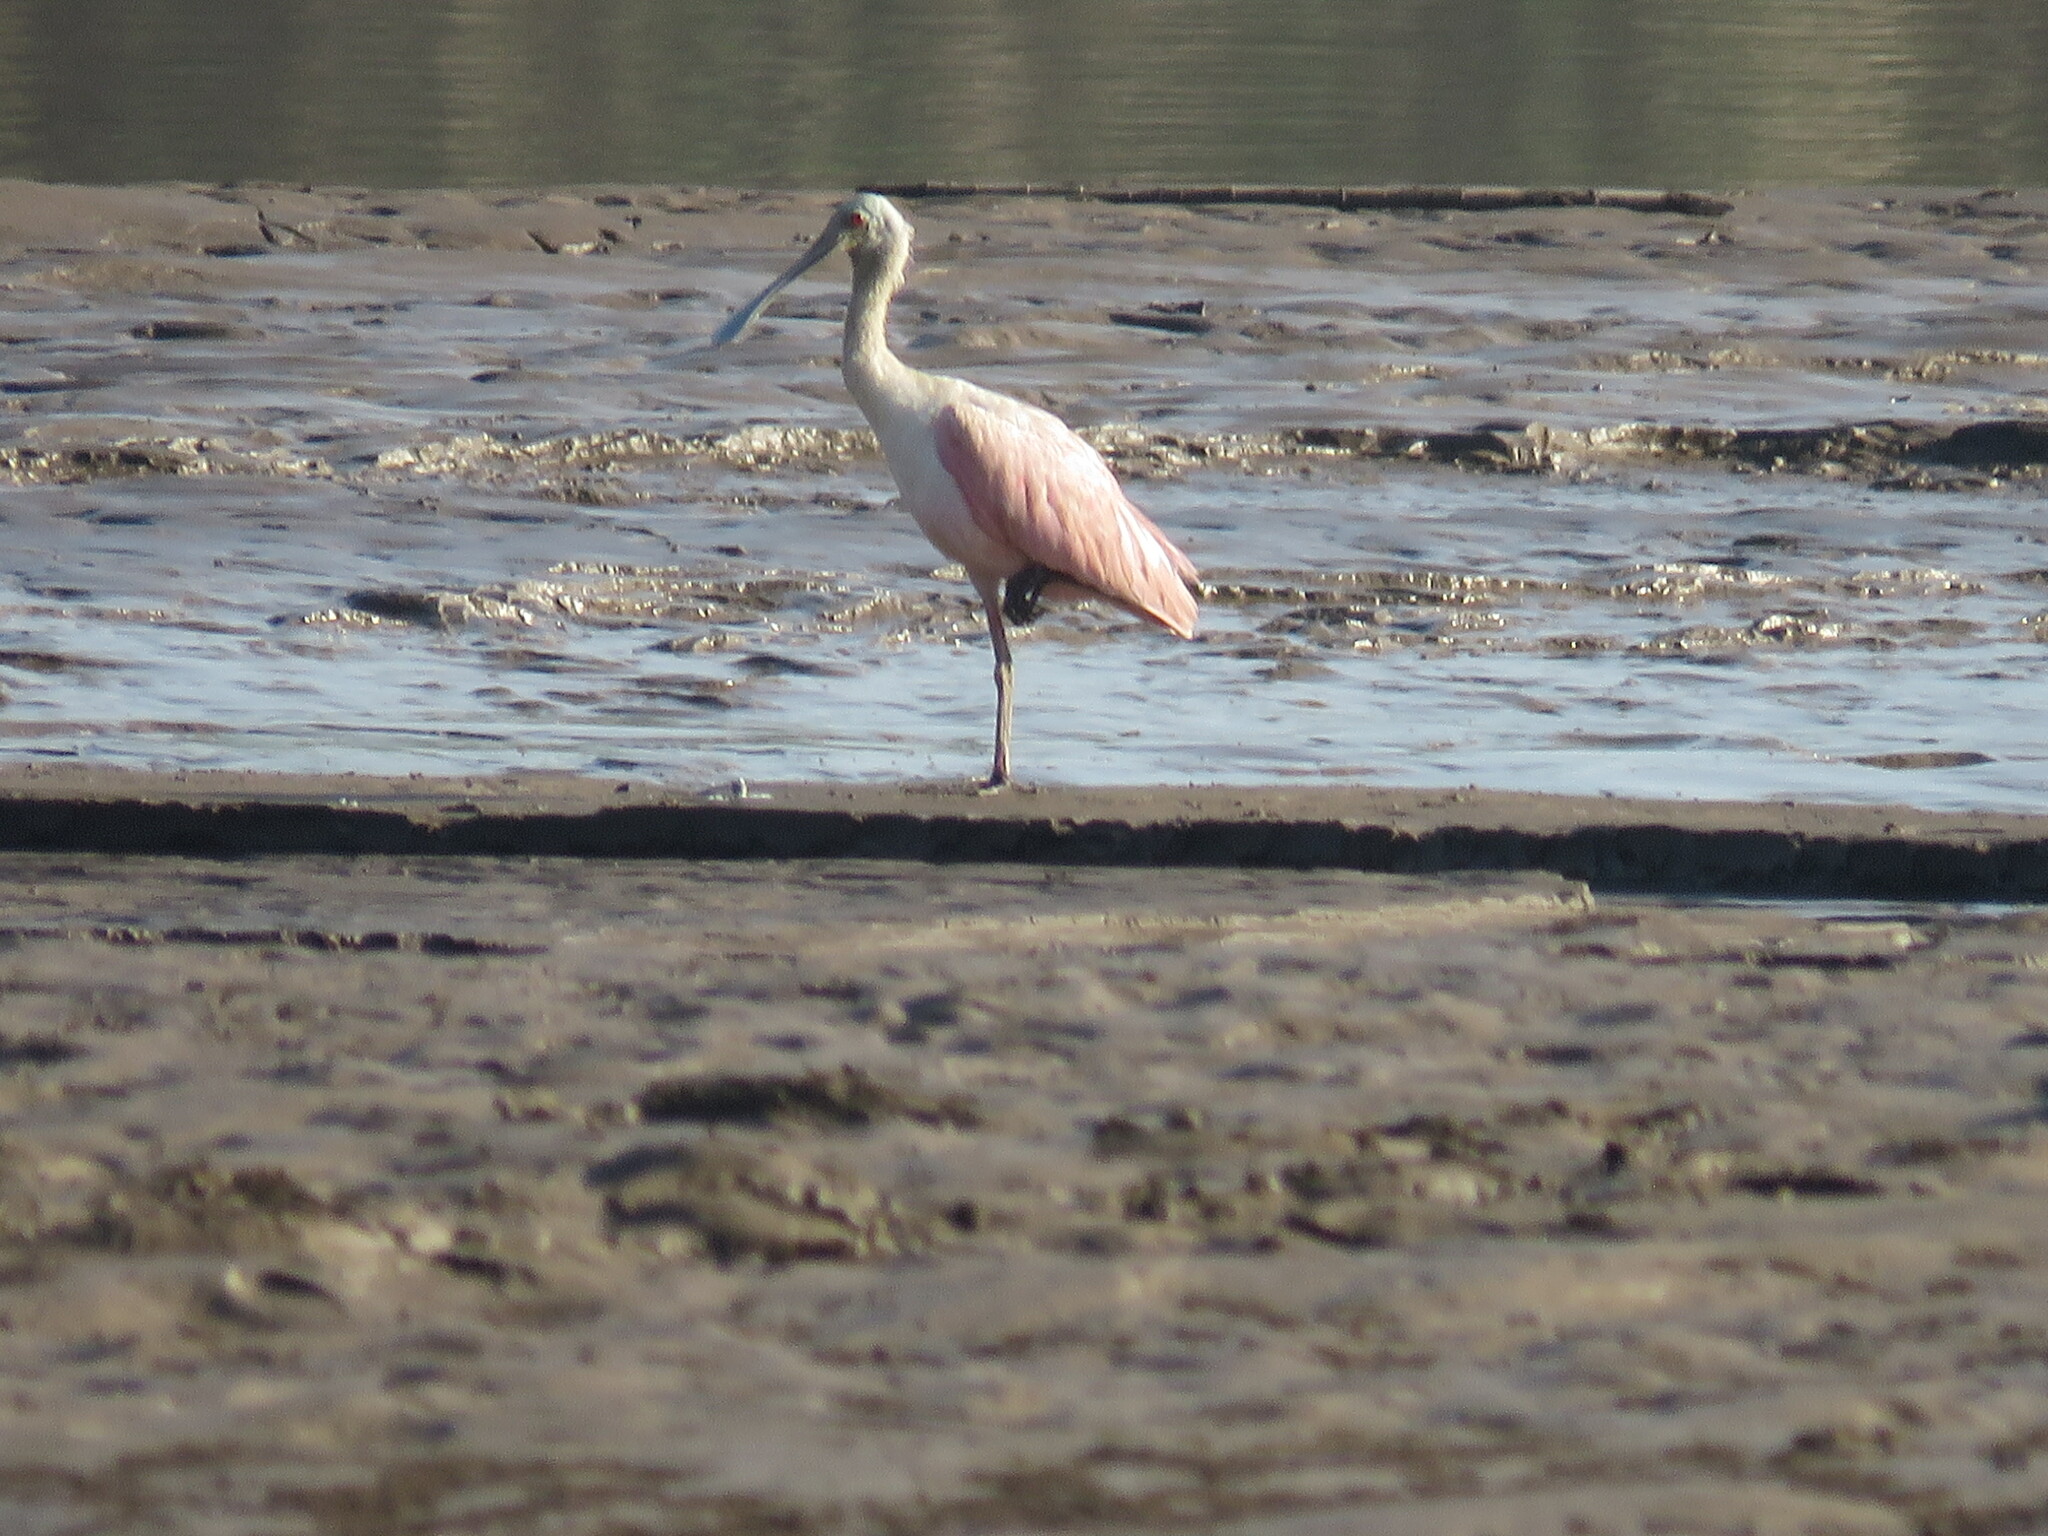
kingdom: Animalia
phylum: Chordata
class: Aves
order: Pelecaniformes
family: Threskiornithidae
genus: Platalea
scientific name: Platalea ajaja
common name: Roseate spoonbill
